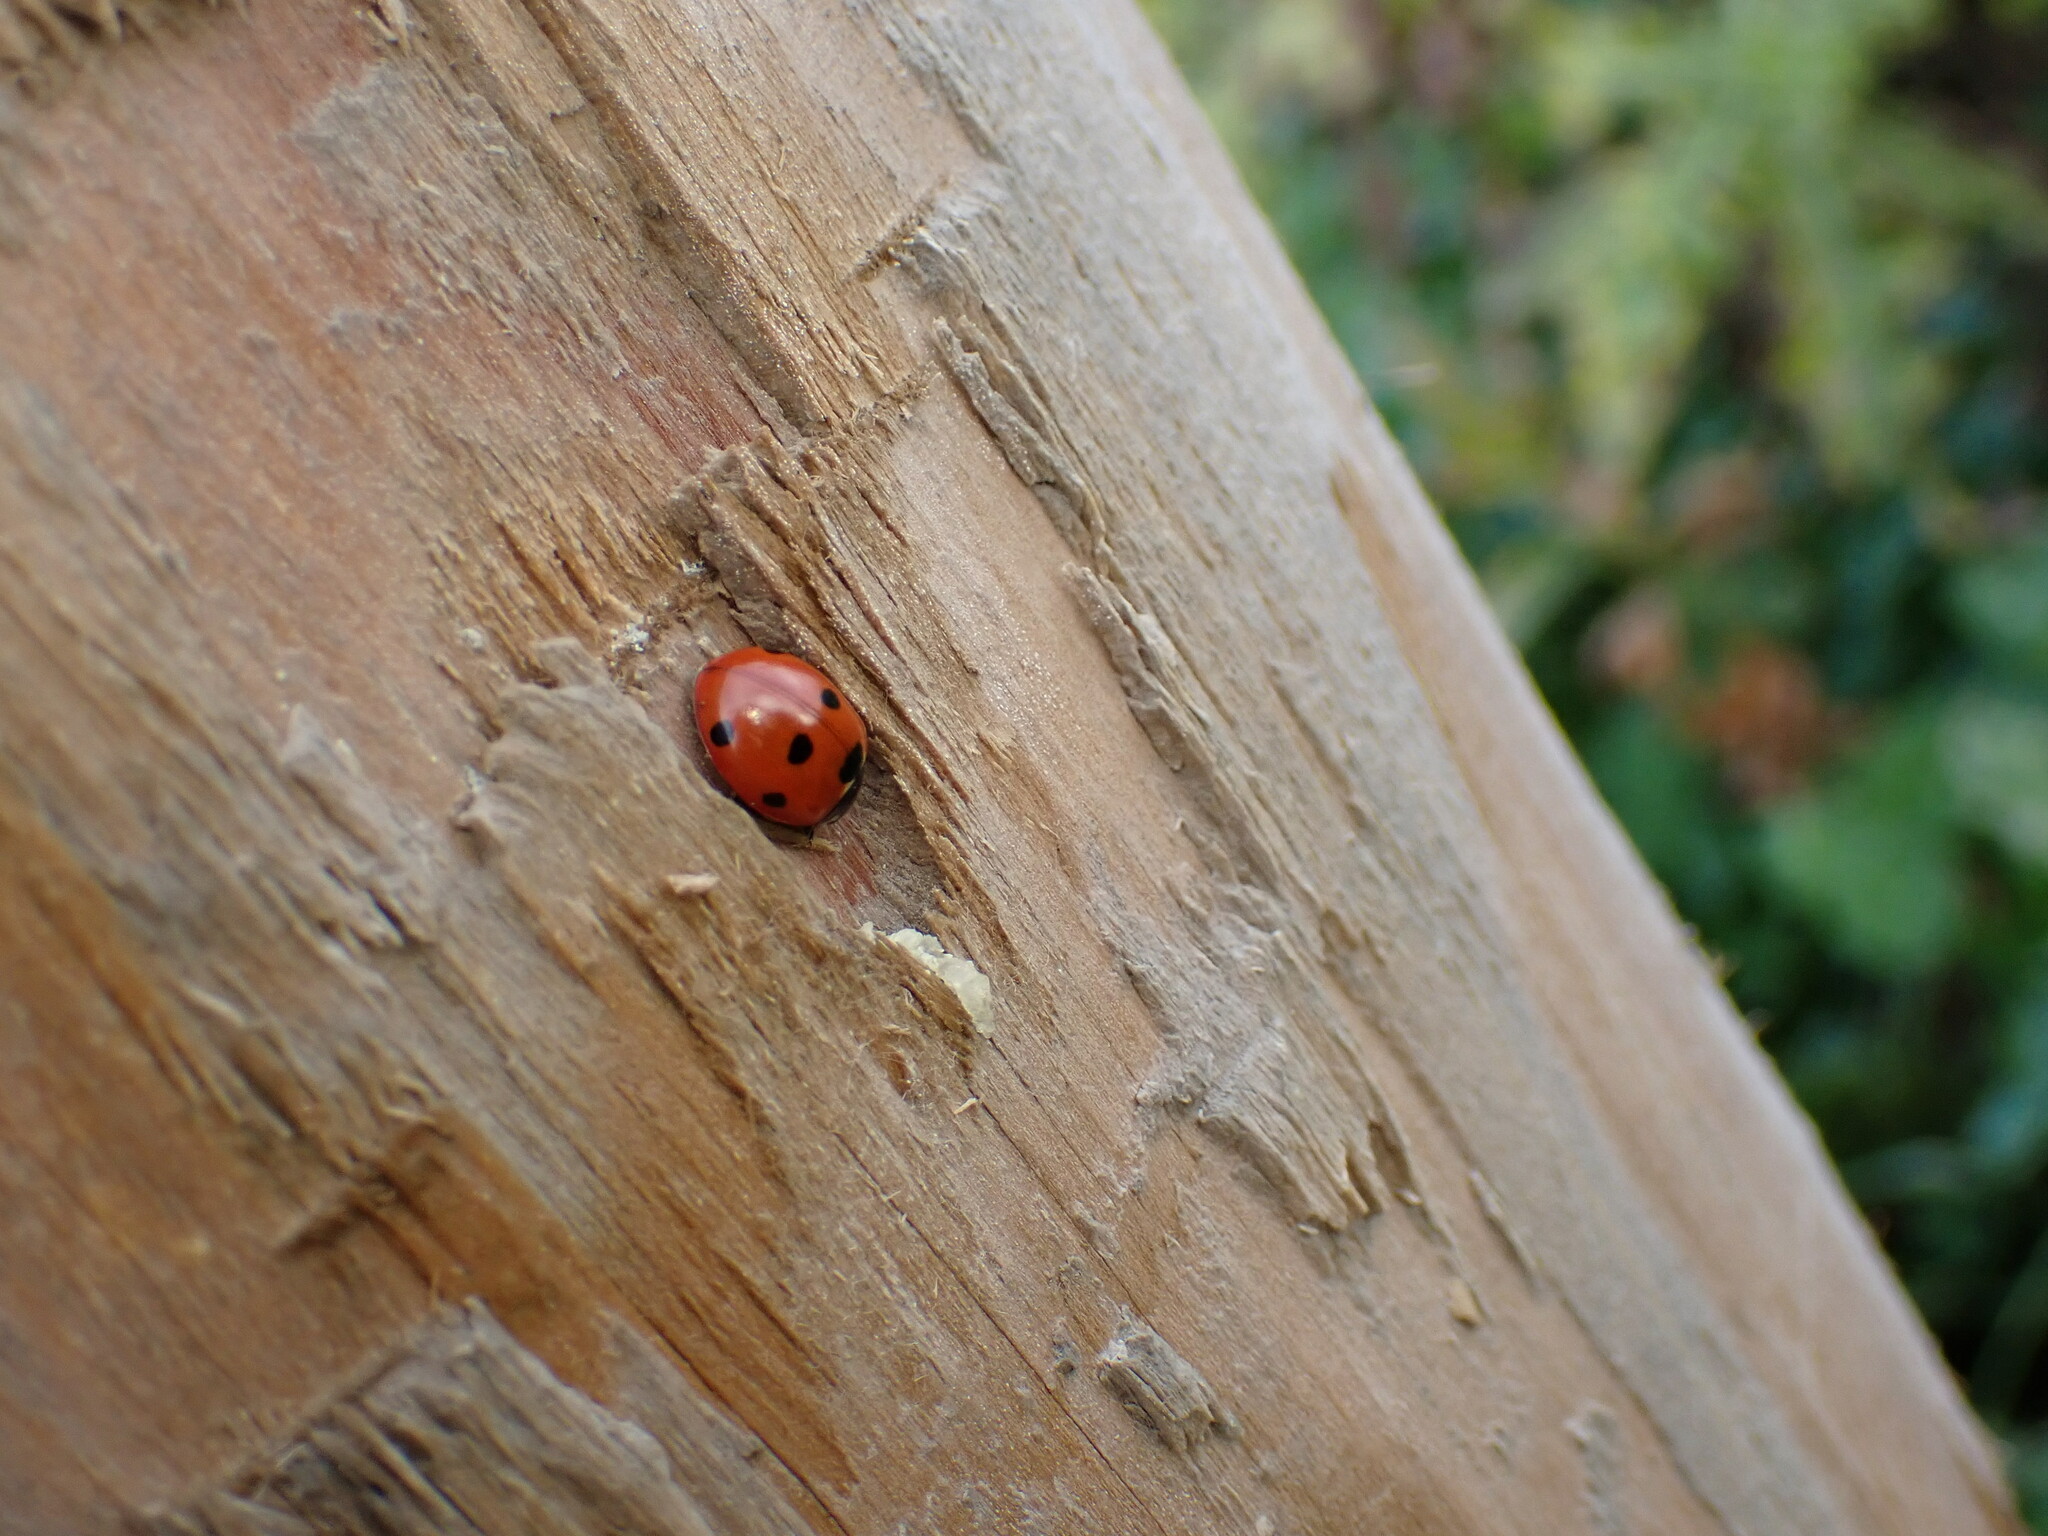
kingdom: Animalia
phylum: Arthropoda
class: Insecta
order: Coleoptera
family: Coccinellidae
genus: Coccinella
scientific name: Coccinella septempunctata
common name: Sevenspotted lady beetle
